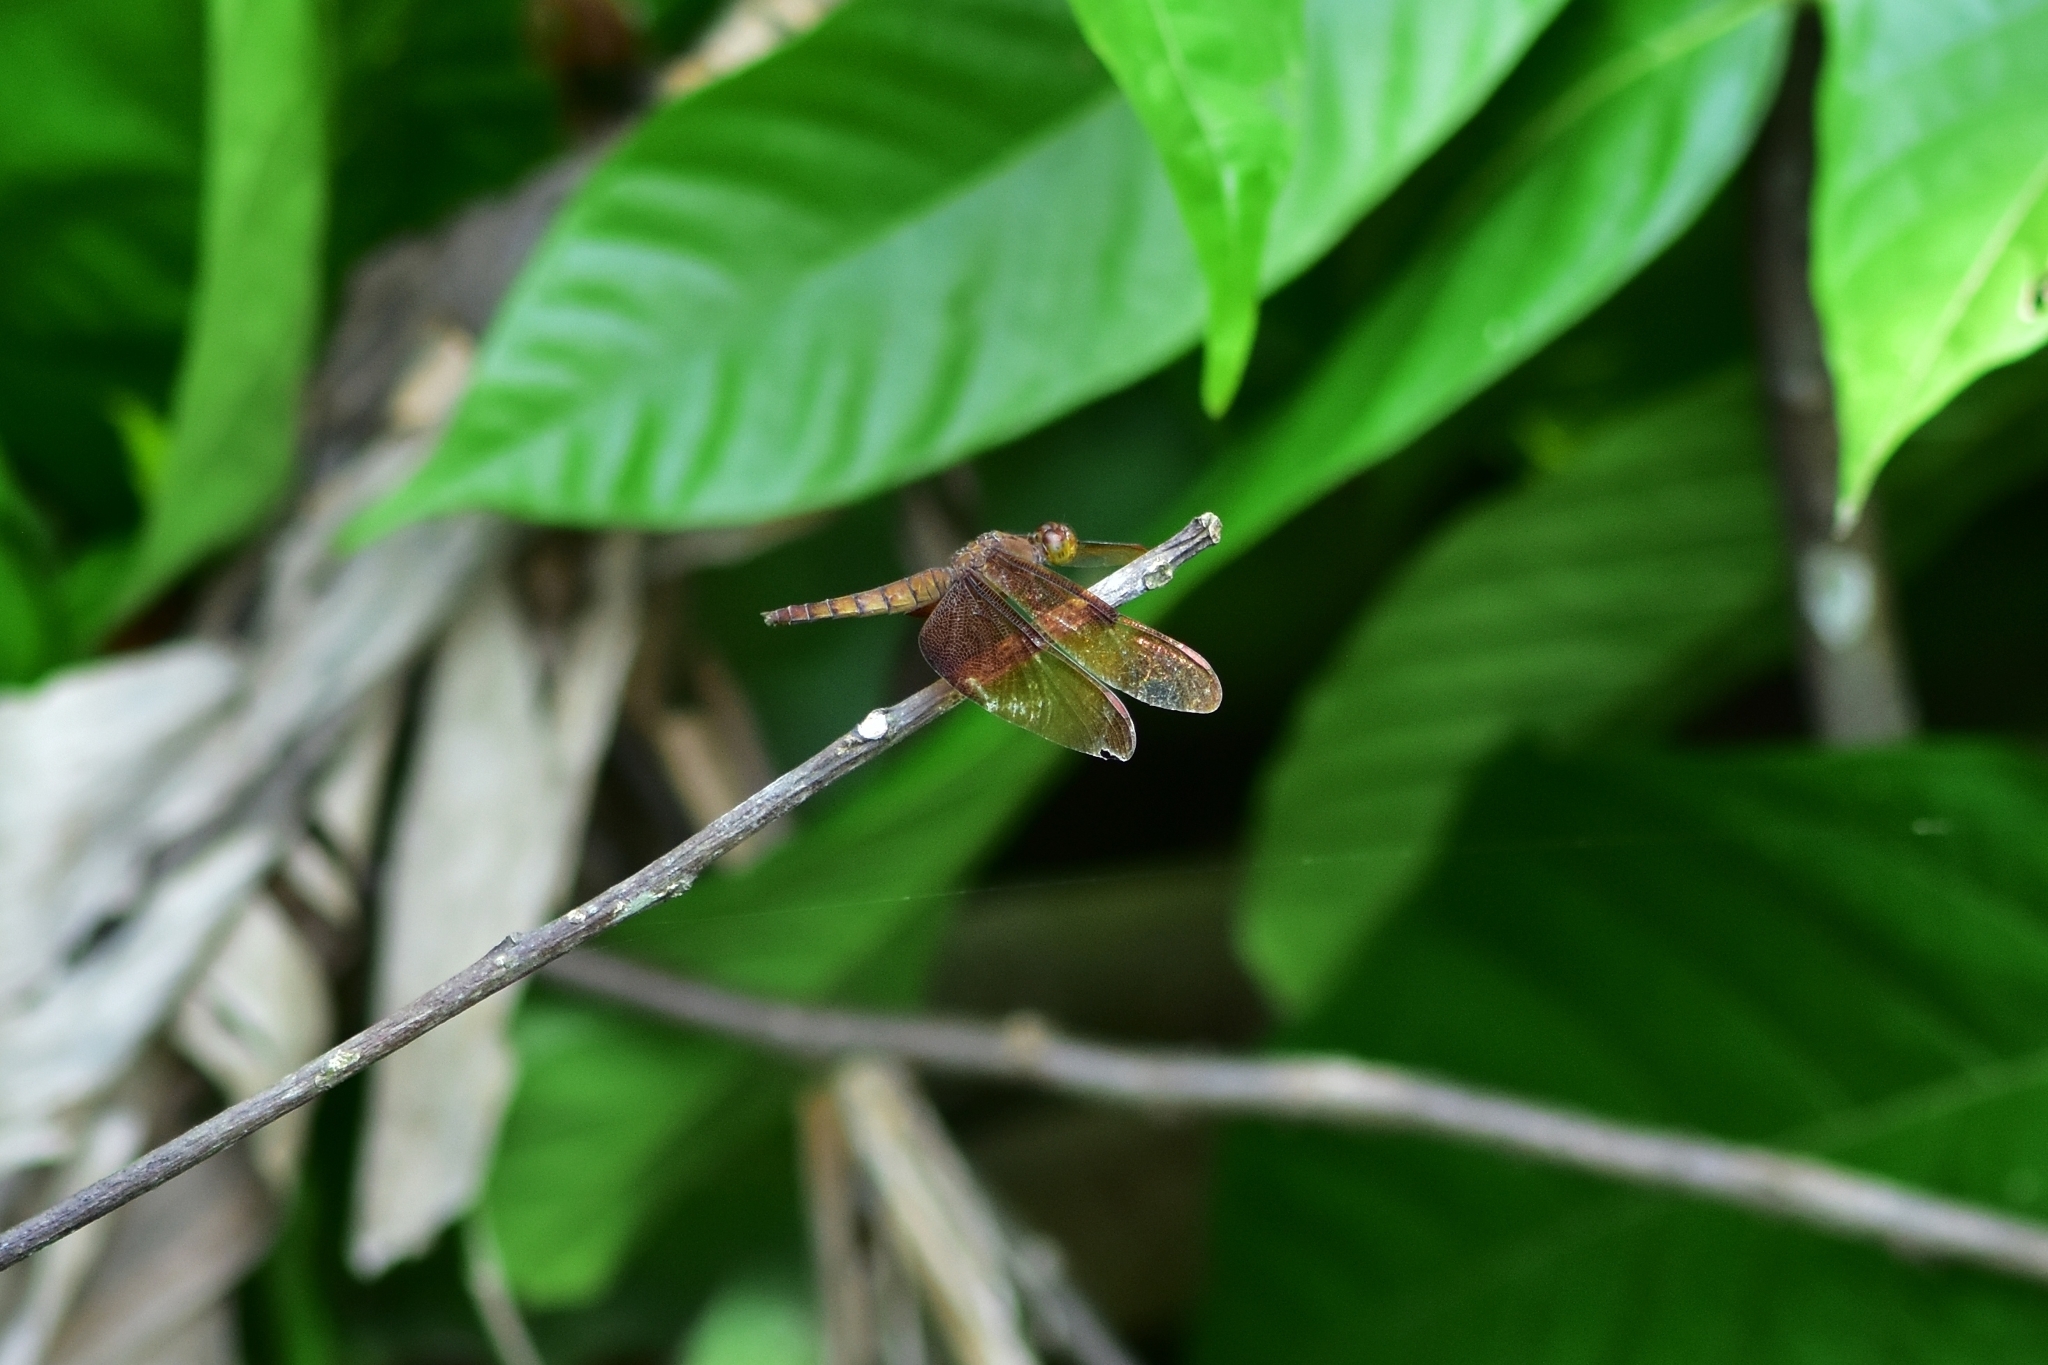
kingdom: Animalia
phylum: Arthropoda
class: Insecta
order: Odonata
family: Libellulidae
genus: Neurothemis
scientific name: Neurothemis fulvia
